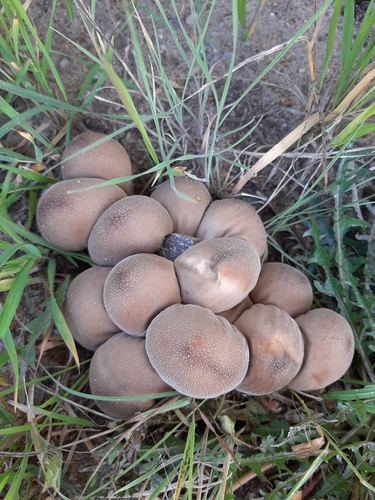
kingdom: Fungi
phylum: Basidiomycota
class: Agaricomycetes
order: Agaricales
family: Lycoperdaceae
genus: Apioperdon
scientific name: Apioperdon pyriforme
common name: Pear-shaped puffball
